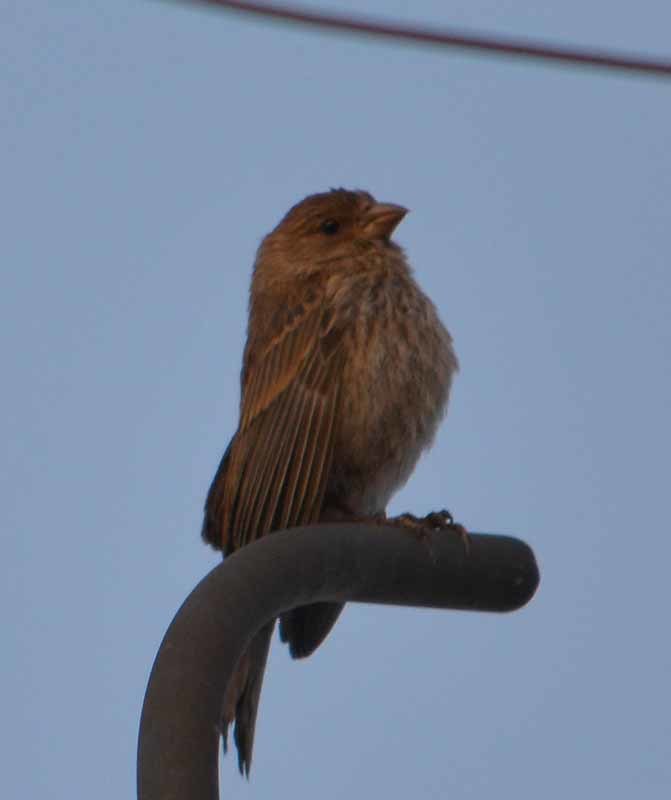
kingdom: Animalia
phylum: Chordata
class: Aves
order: Passeriformes
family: Fringillidae
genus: Haemorhous
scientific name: Haemorhous mexicanus
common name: House finch
